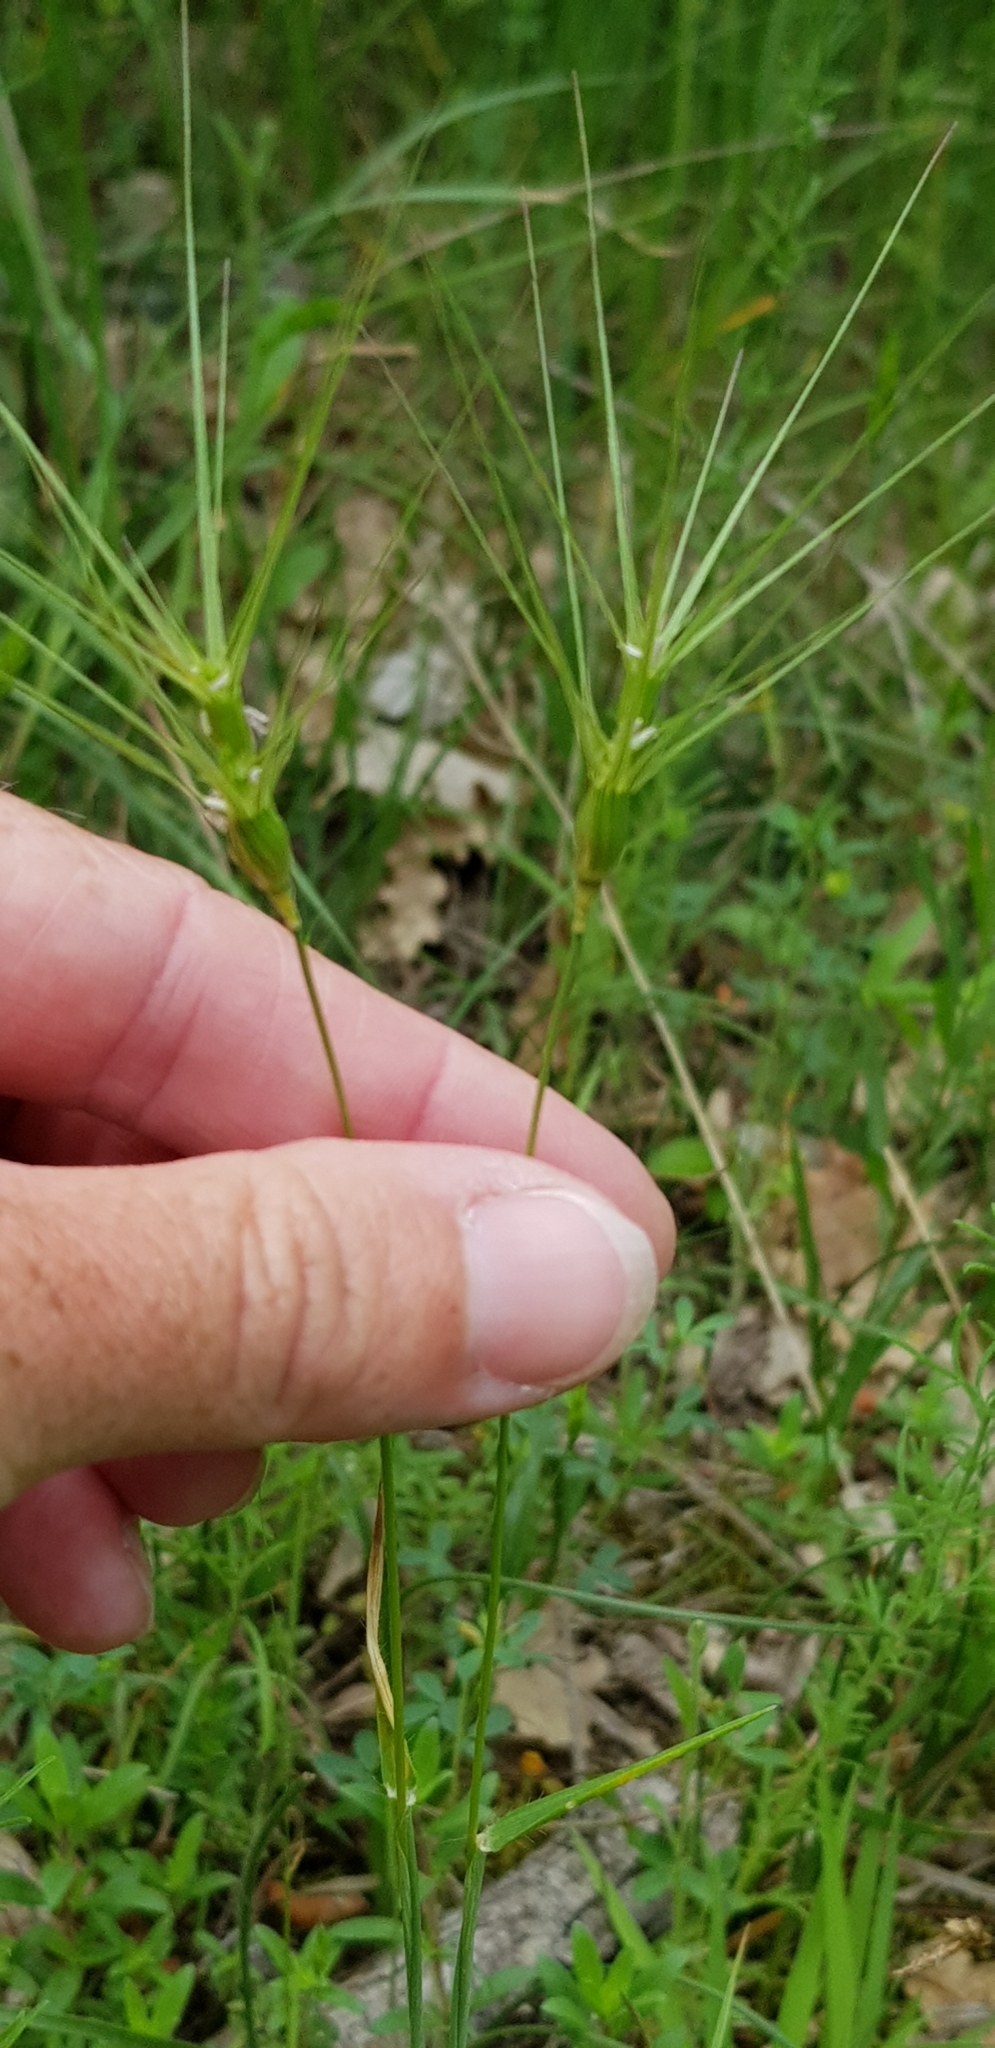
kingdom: Plantae
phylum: Tracheophyta
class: Liliopsida
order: Poales
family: Poaceae
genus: Aegilops
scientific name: Aegilops biuncialis
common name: Mediterranean aegilops
